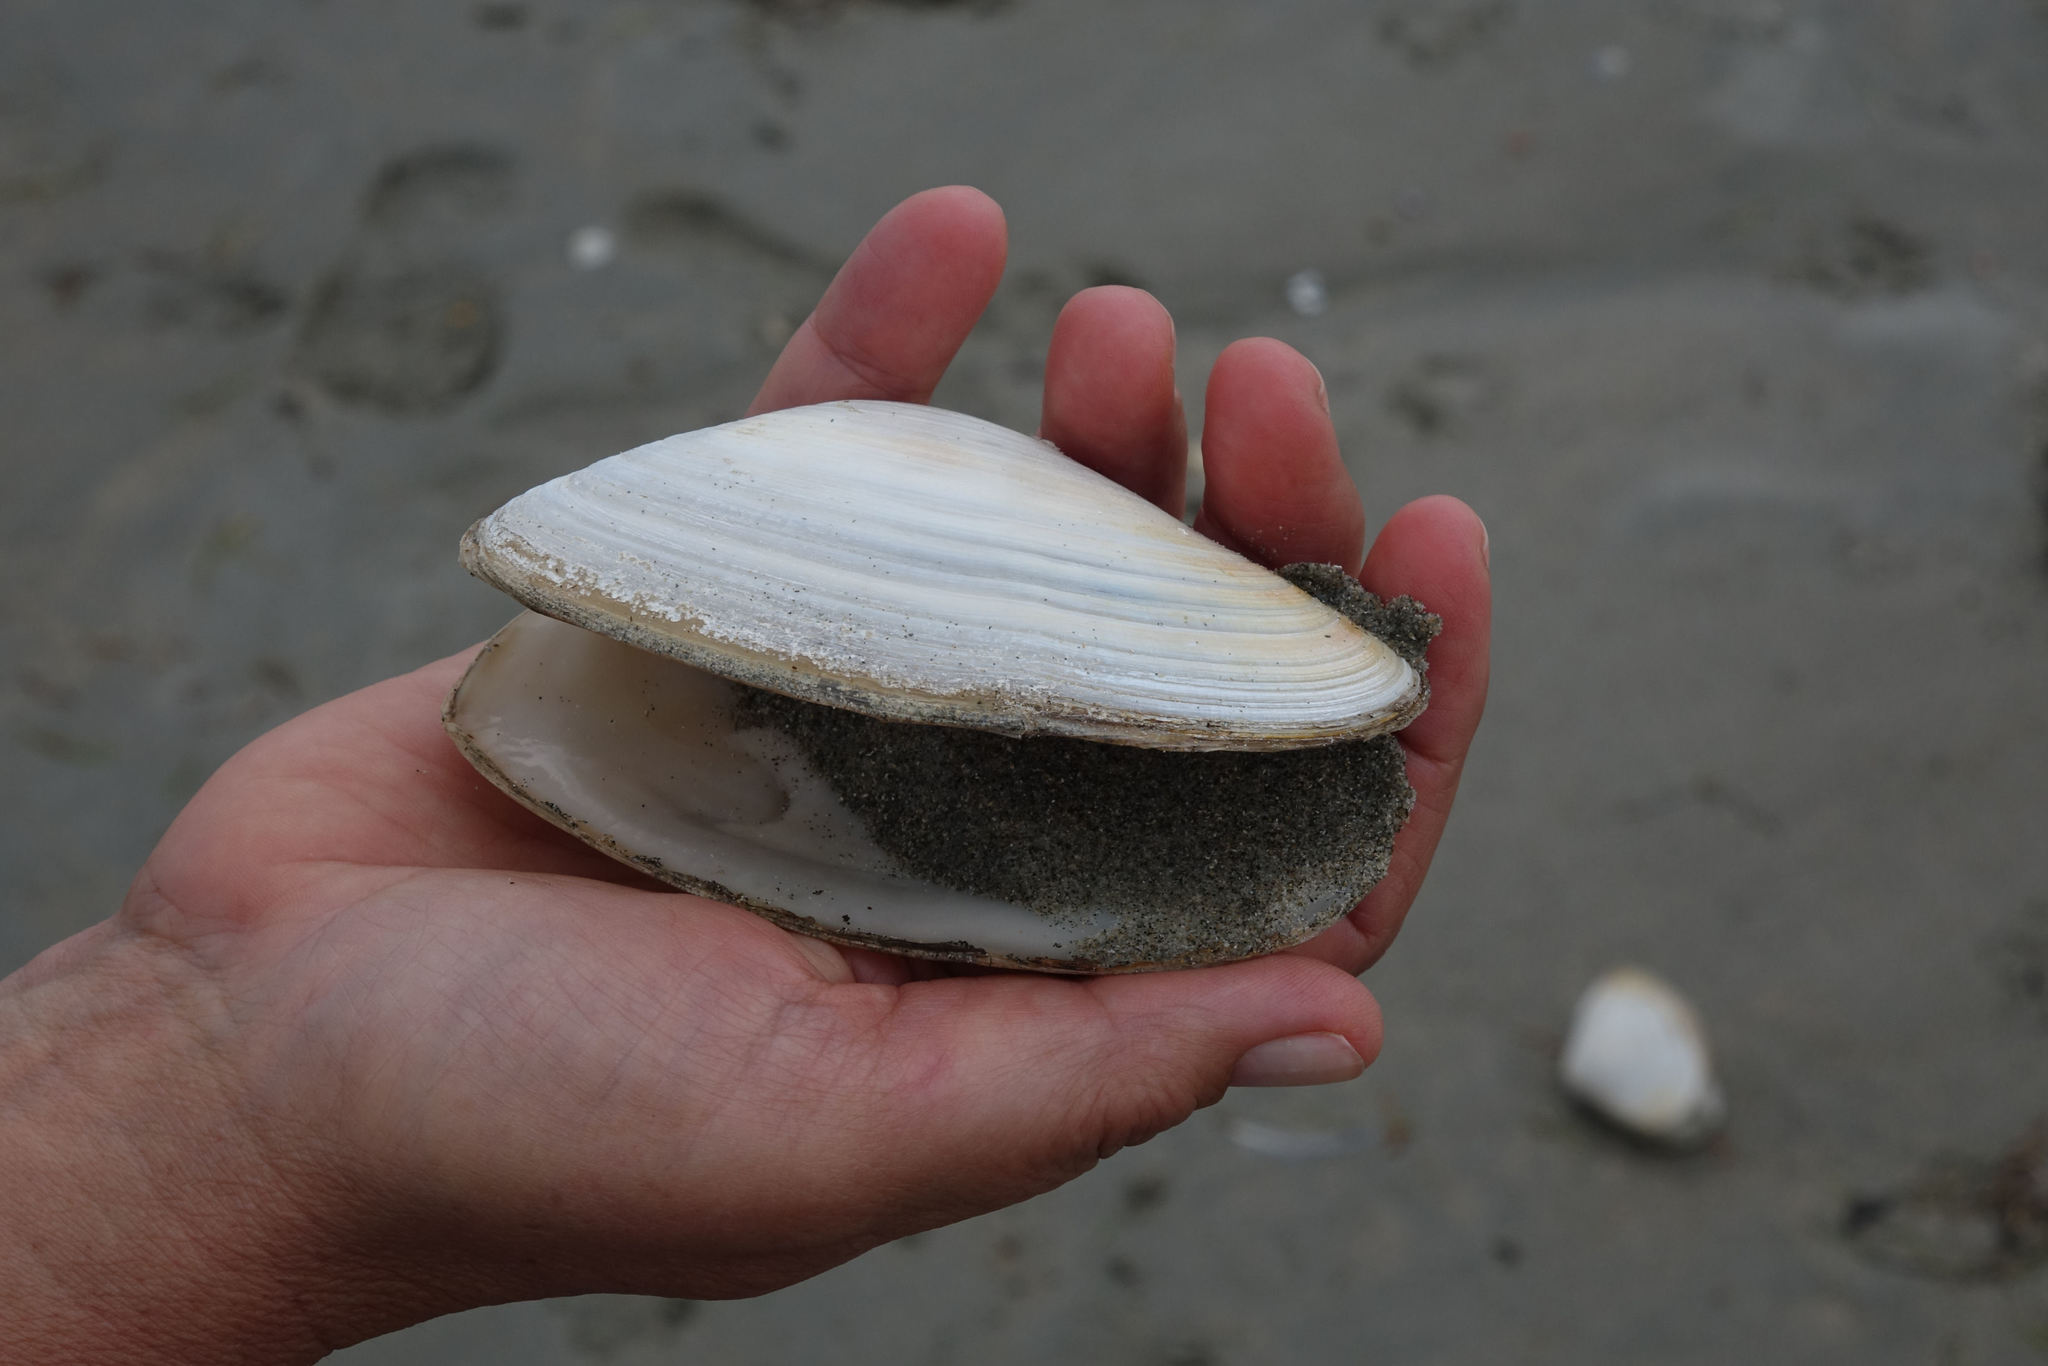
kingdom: Animalia
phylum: Mollusca
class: Bivalvia
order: Venerida
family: Mesodesmatidae
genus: Paphies
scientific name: Paphies donacina
